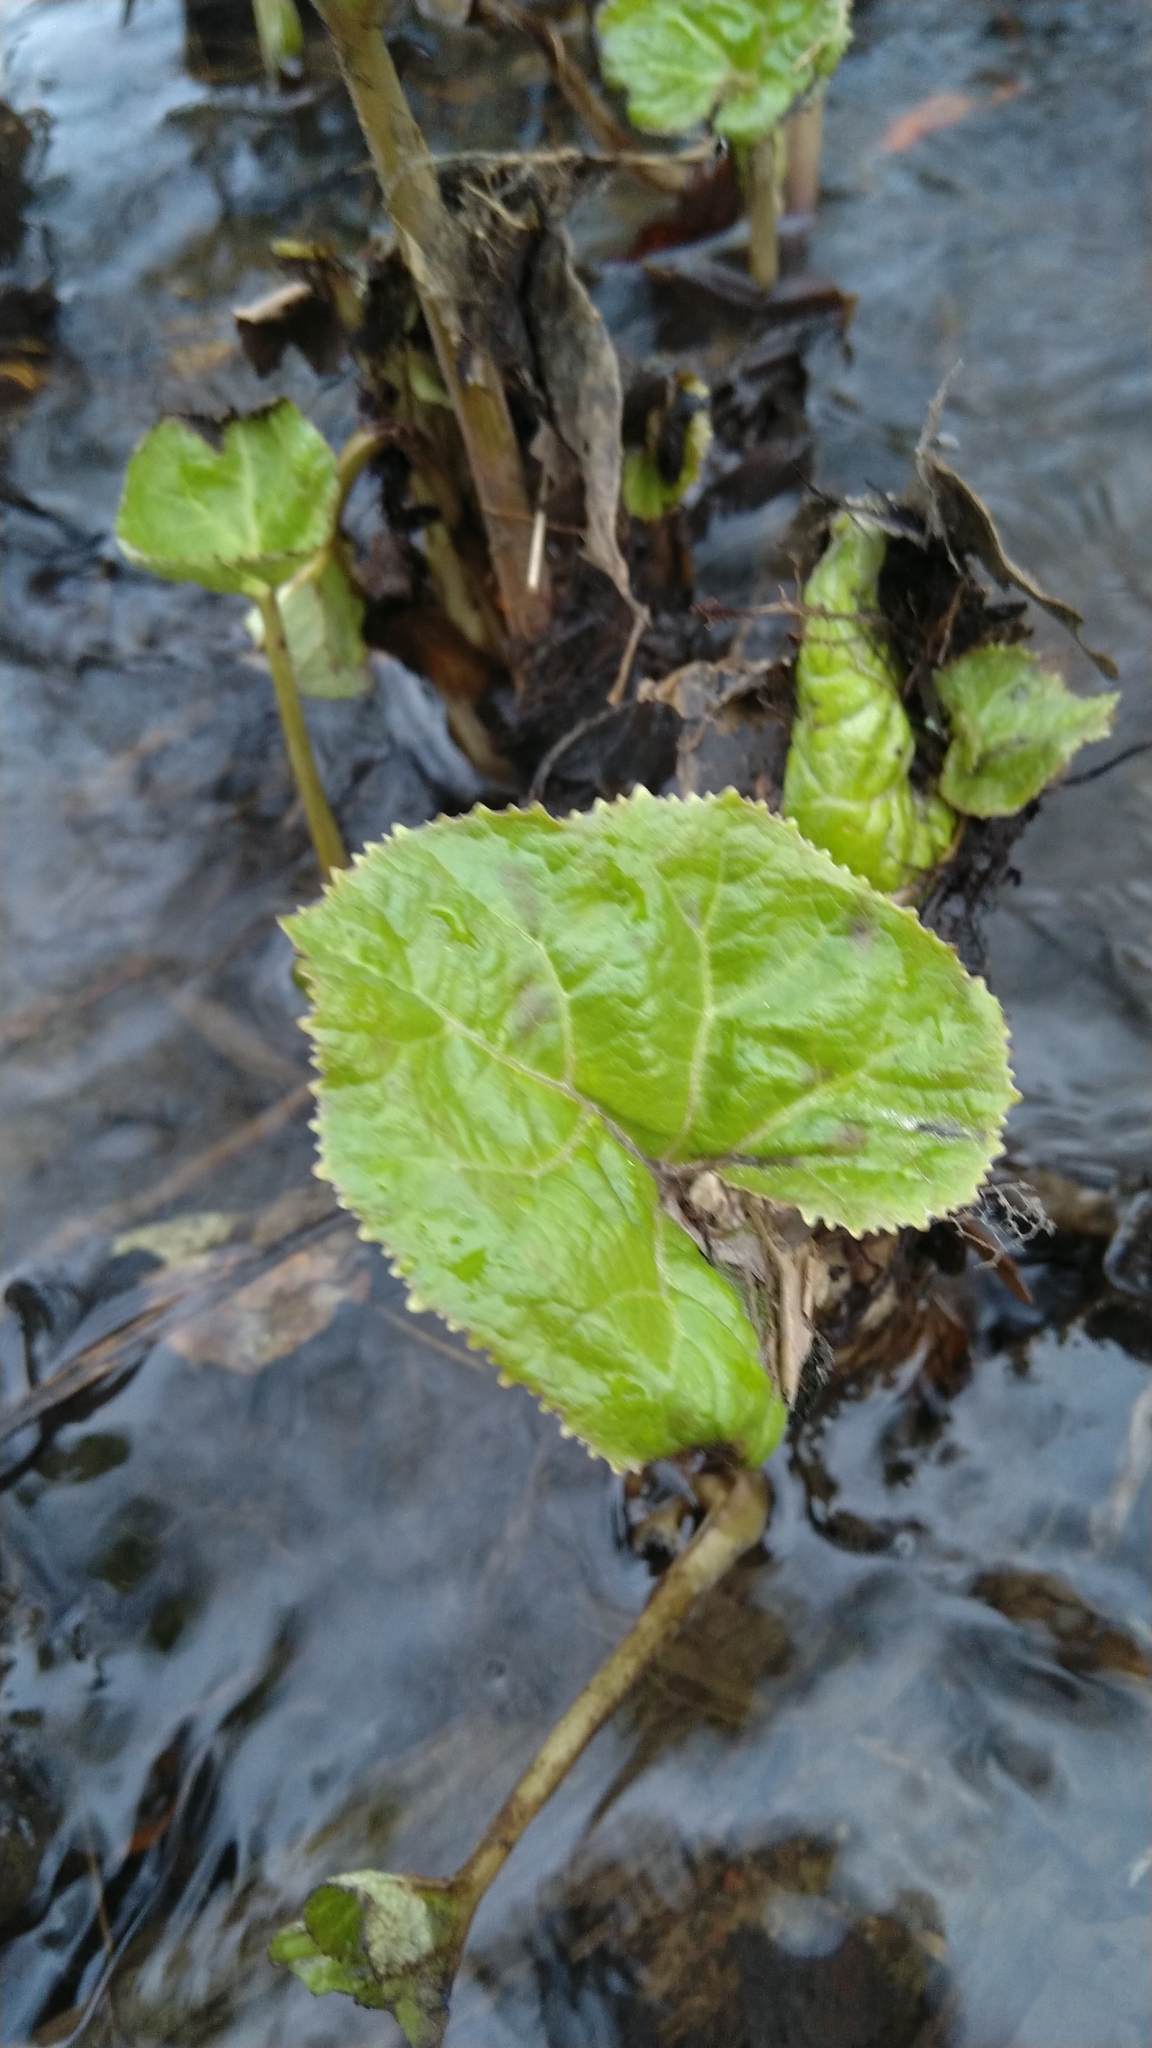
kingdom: Plantae
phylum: Tracheophyta
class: Magnoliopsida
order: Asterales
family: Asteraceae
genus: Petasites
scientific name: Petasites hybridus
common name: Butterbur
